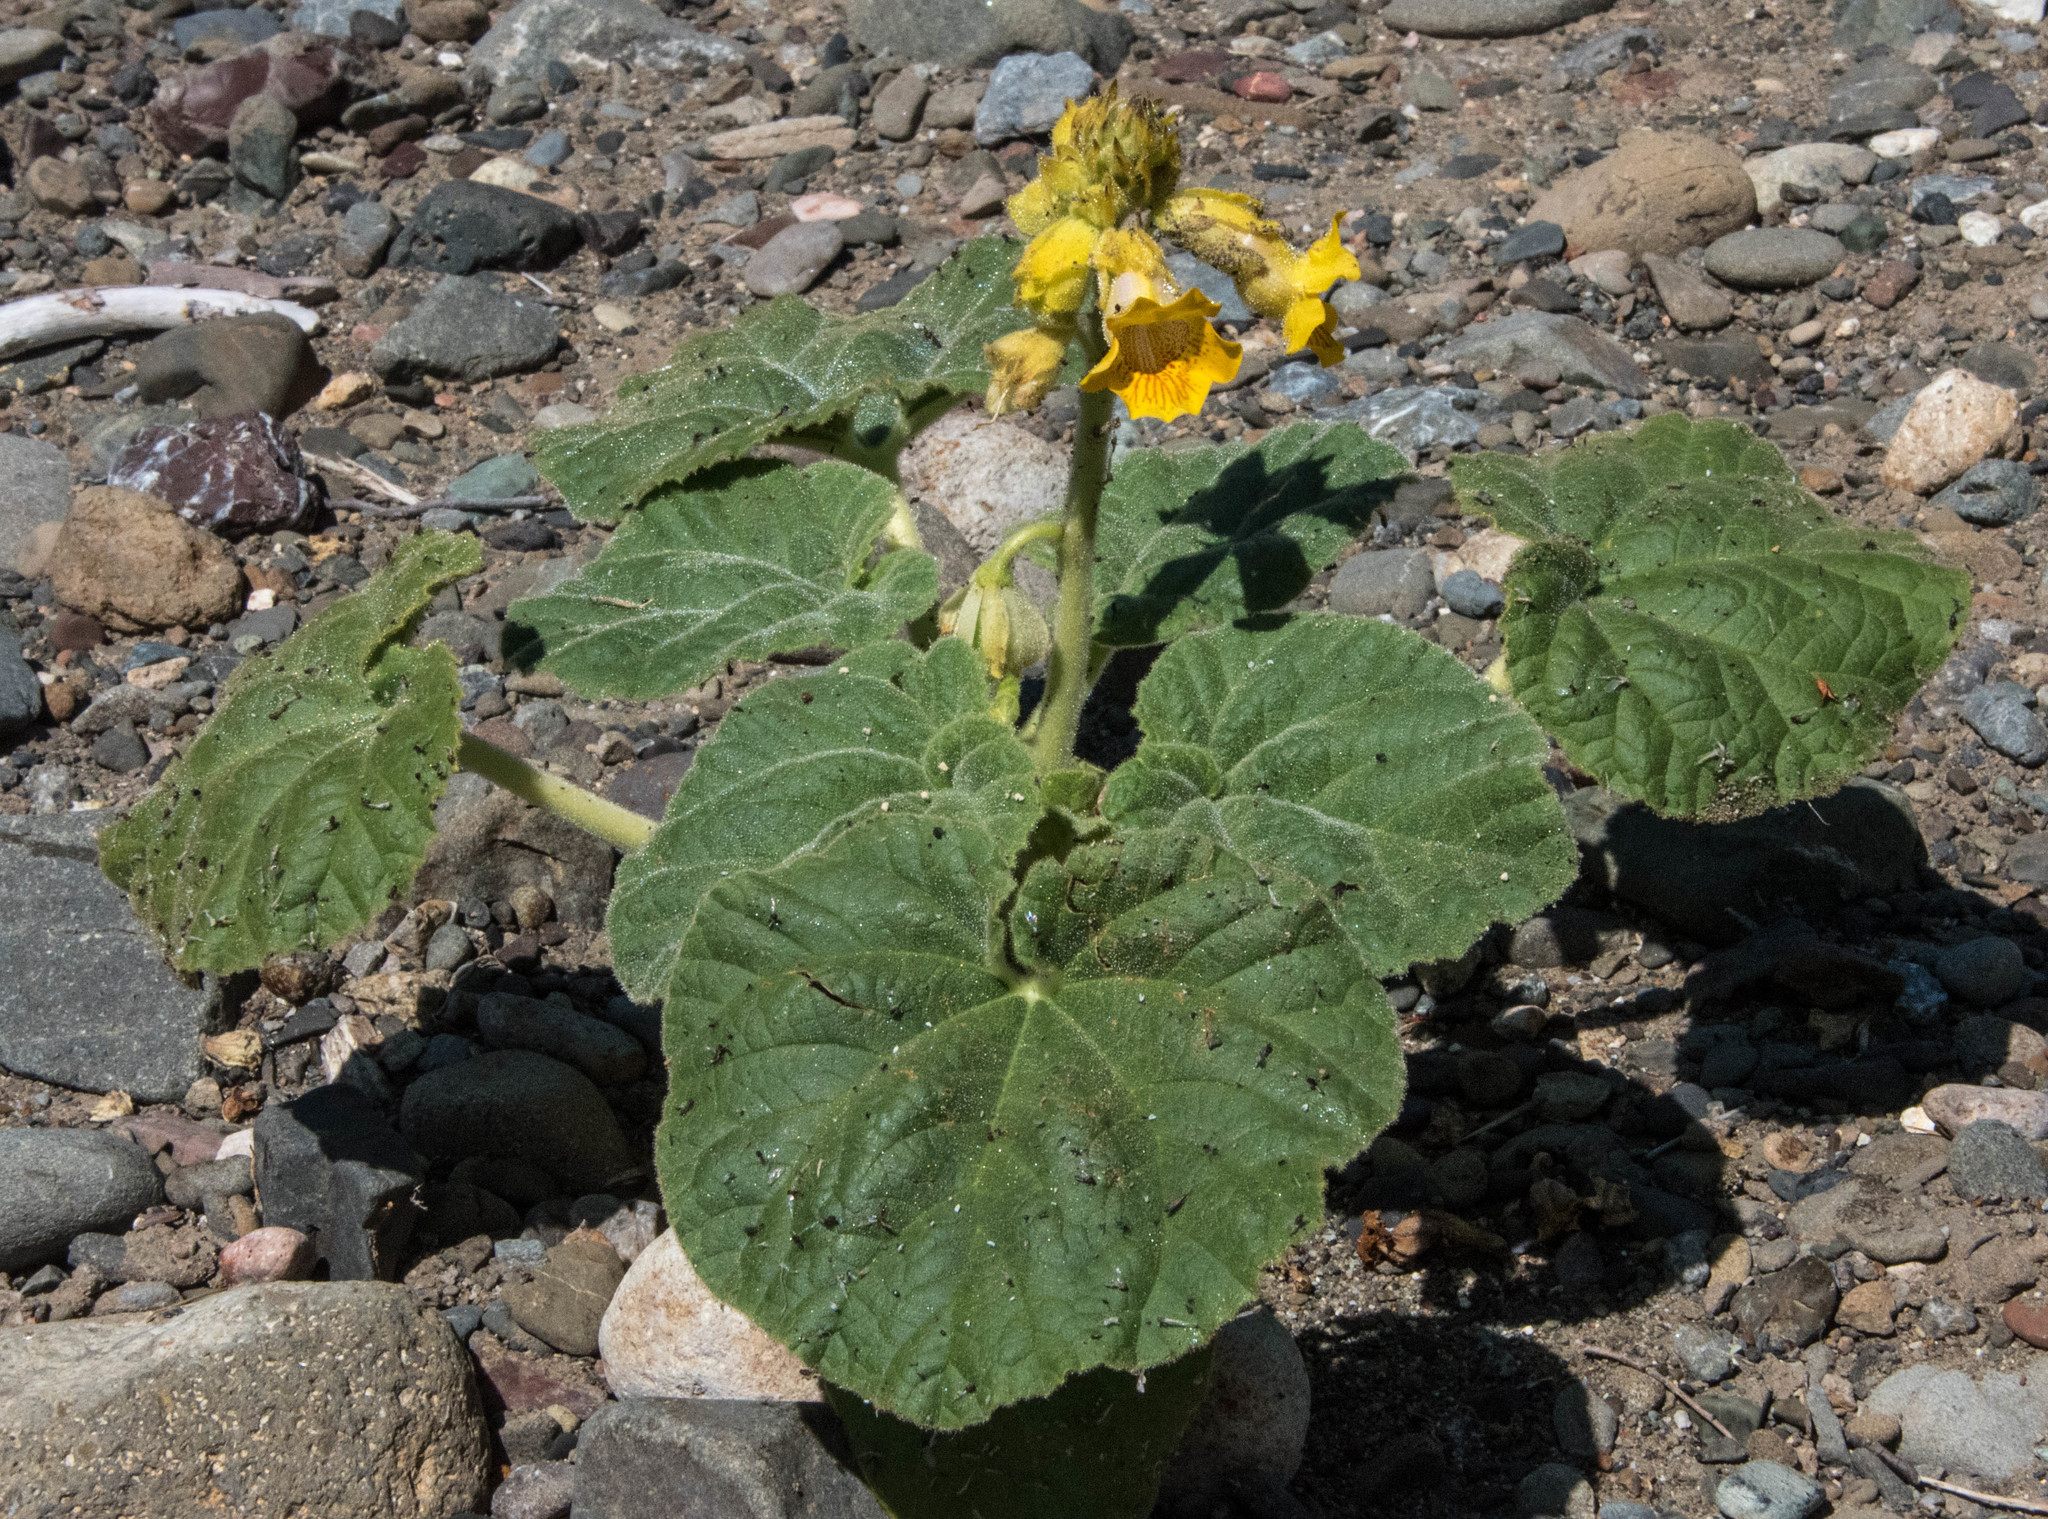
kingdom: Plantae
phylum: Tracheophyta
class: Magnoliopsida
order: Lamiales
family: Martyniaceae
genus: Ibicella
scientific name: Ibicella lutea
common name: Yellow unicorn-plant
